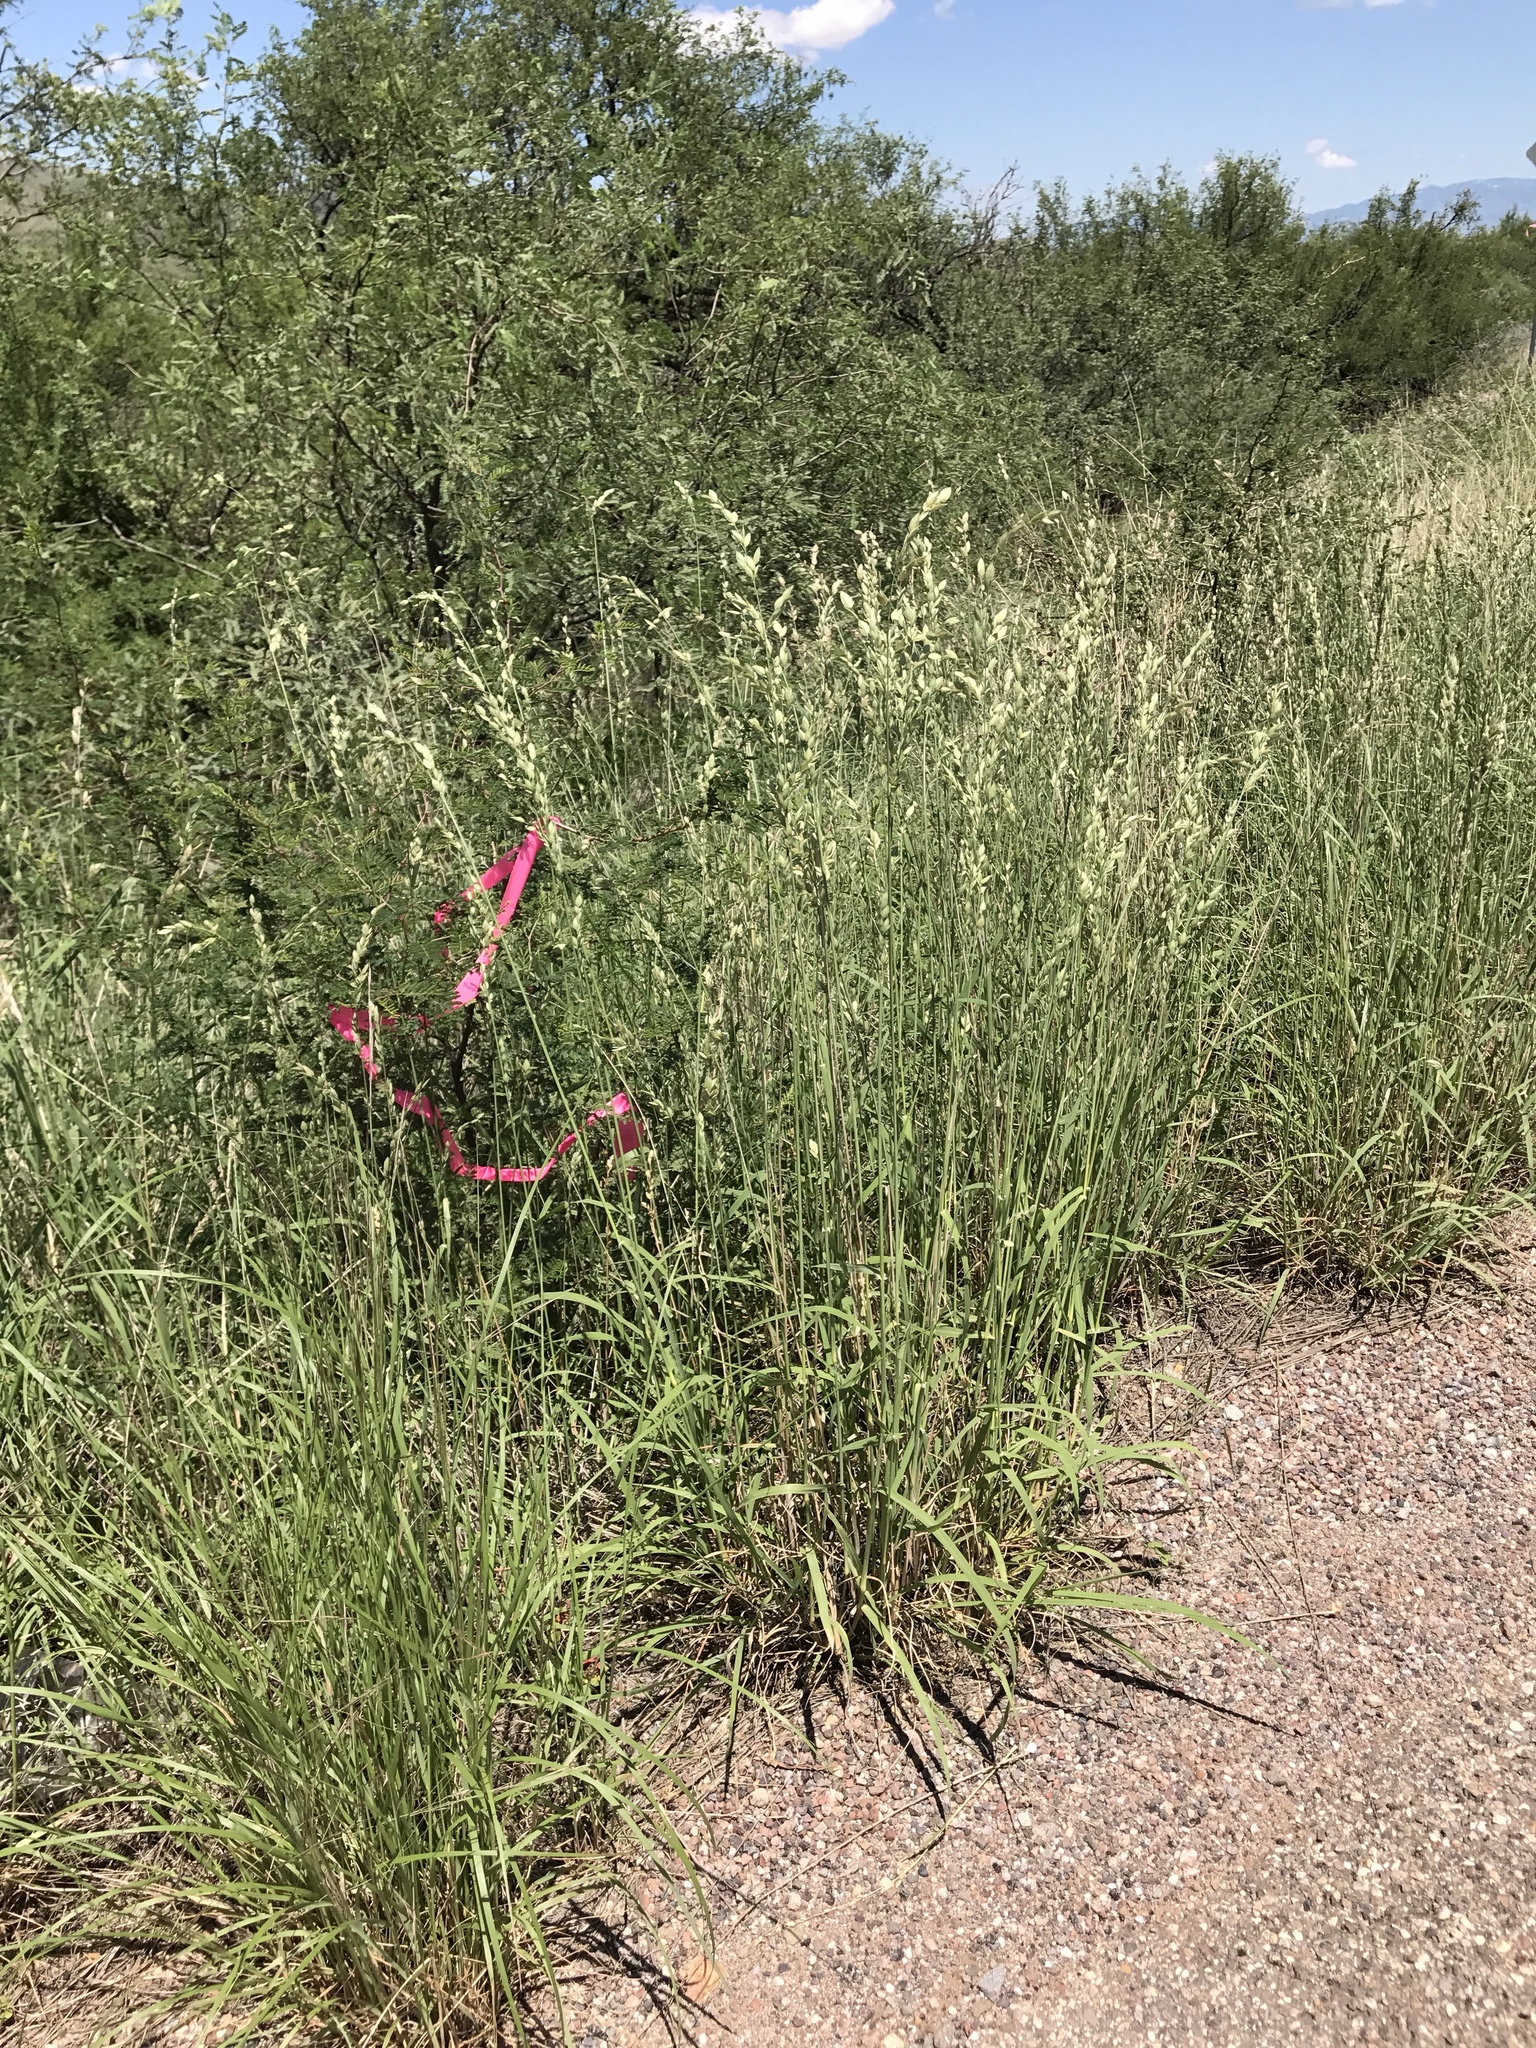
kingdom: Plantae
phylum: Tracheophyta
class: Liliopsida
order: Poales
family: Poaceae
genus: Eragrostis
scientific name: Eragrostis superba
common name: Wilman lovegrass
